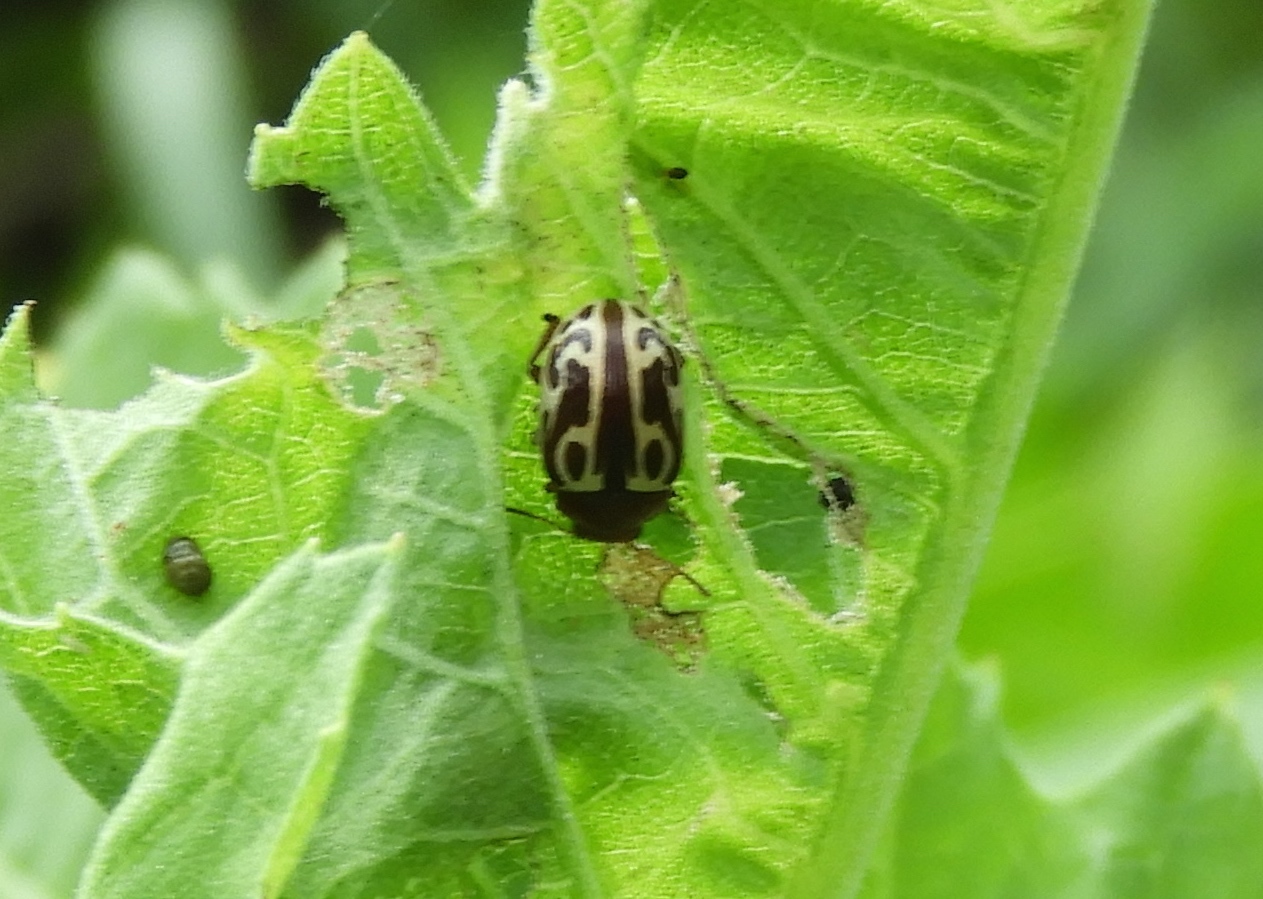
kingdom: Animalia
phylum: Arthropoda
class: Insecta
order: Coleoptera
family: Chrysomelidae
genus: Zygogramma
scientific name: Zygogramma
